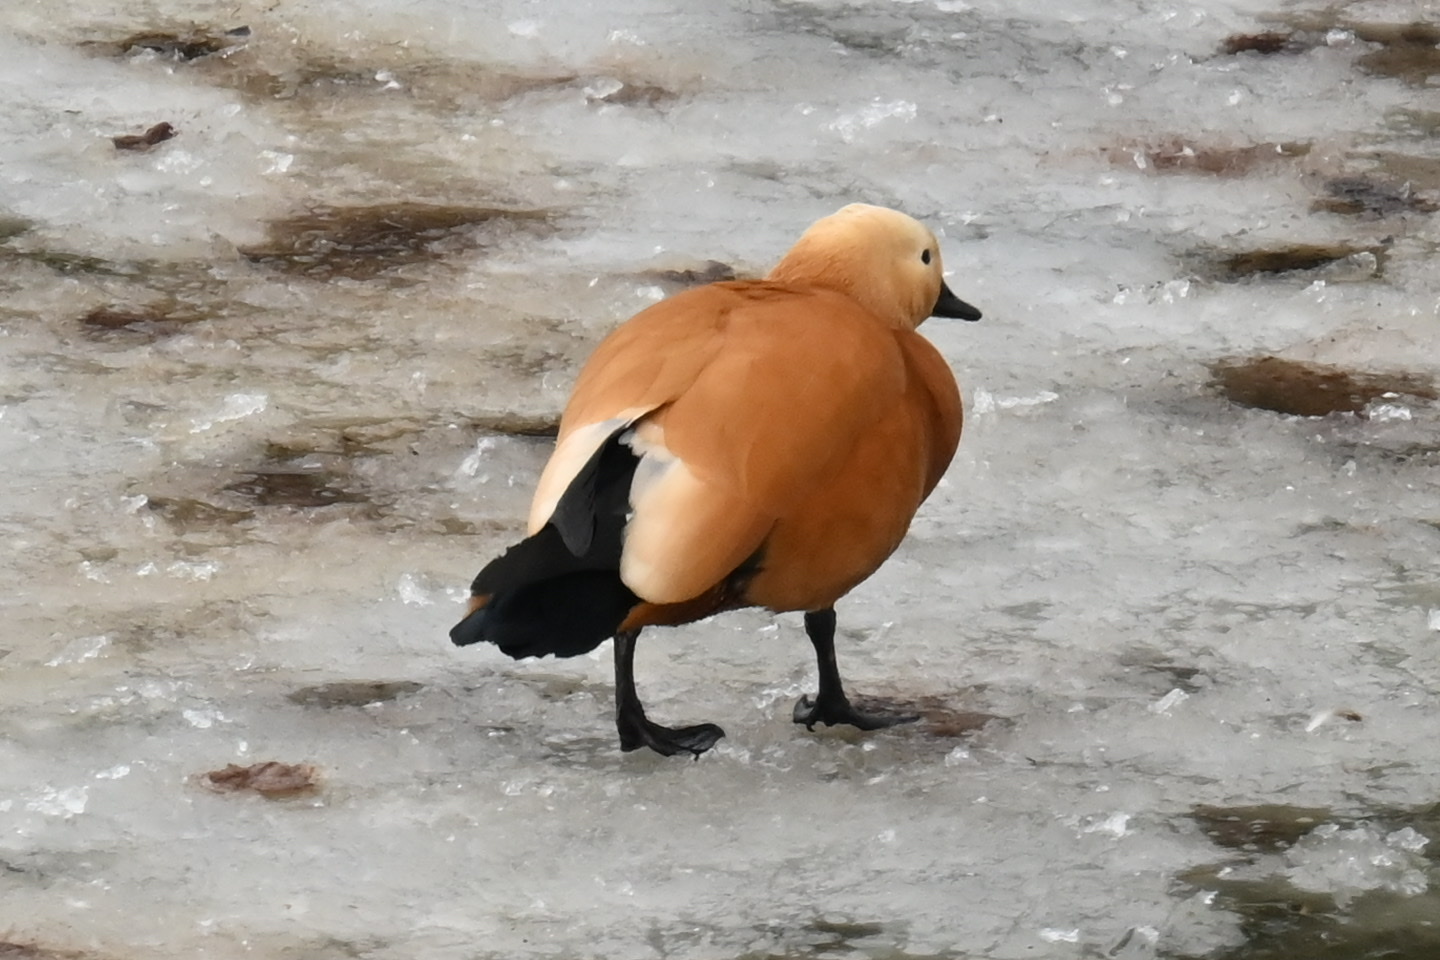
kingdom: Animalia
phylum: Chordata
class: Aves
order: Anseriformes
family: Anatidae
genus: Tadorna
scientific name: Tadorna ferruginea
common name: Ruddy shelduck
